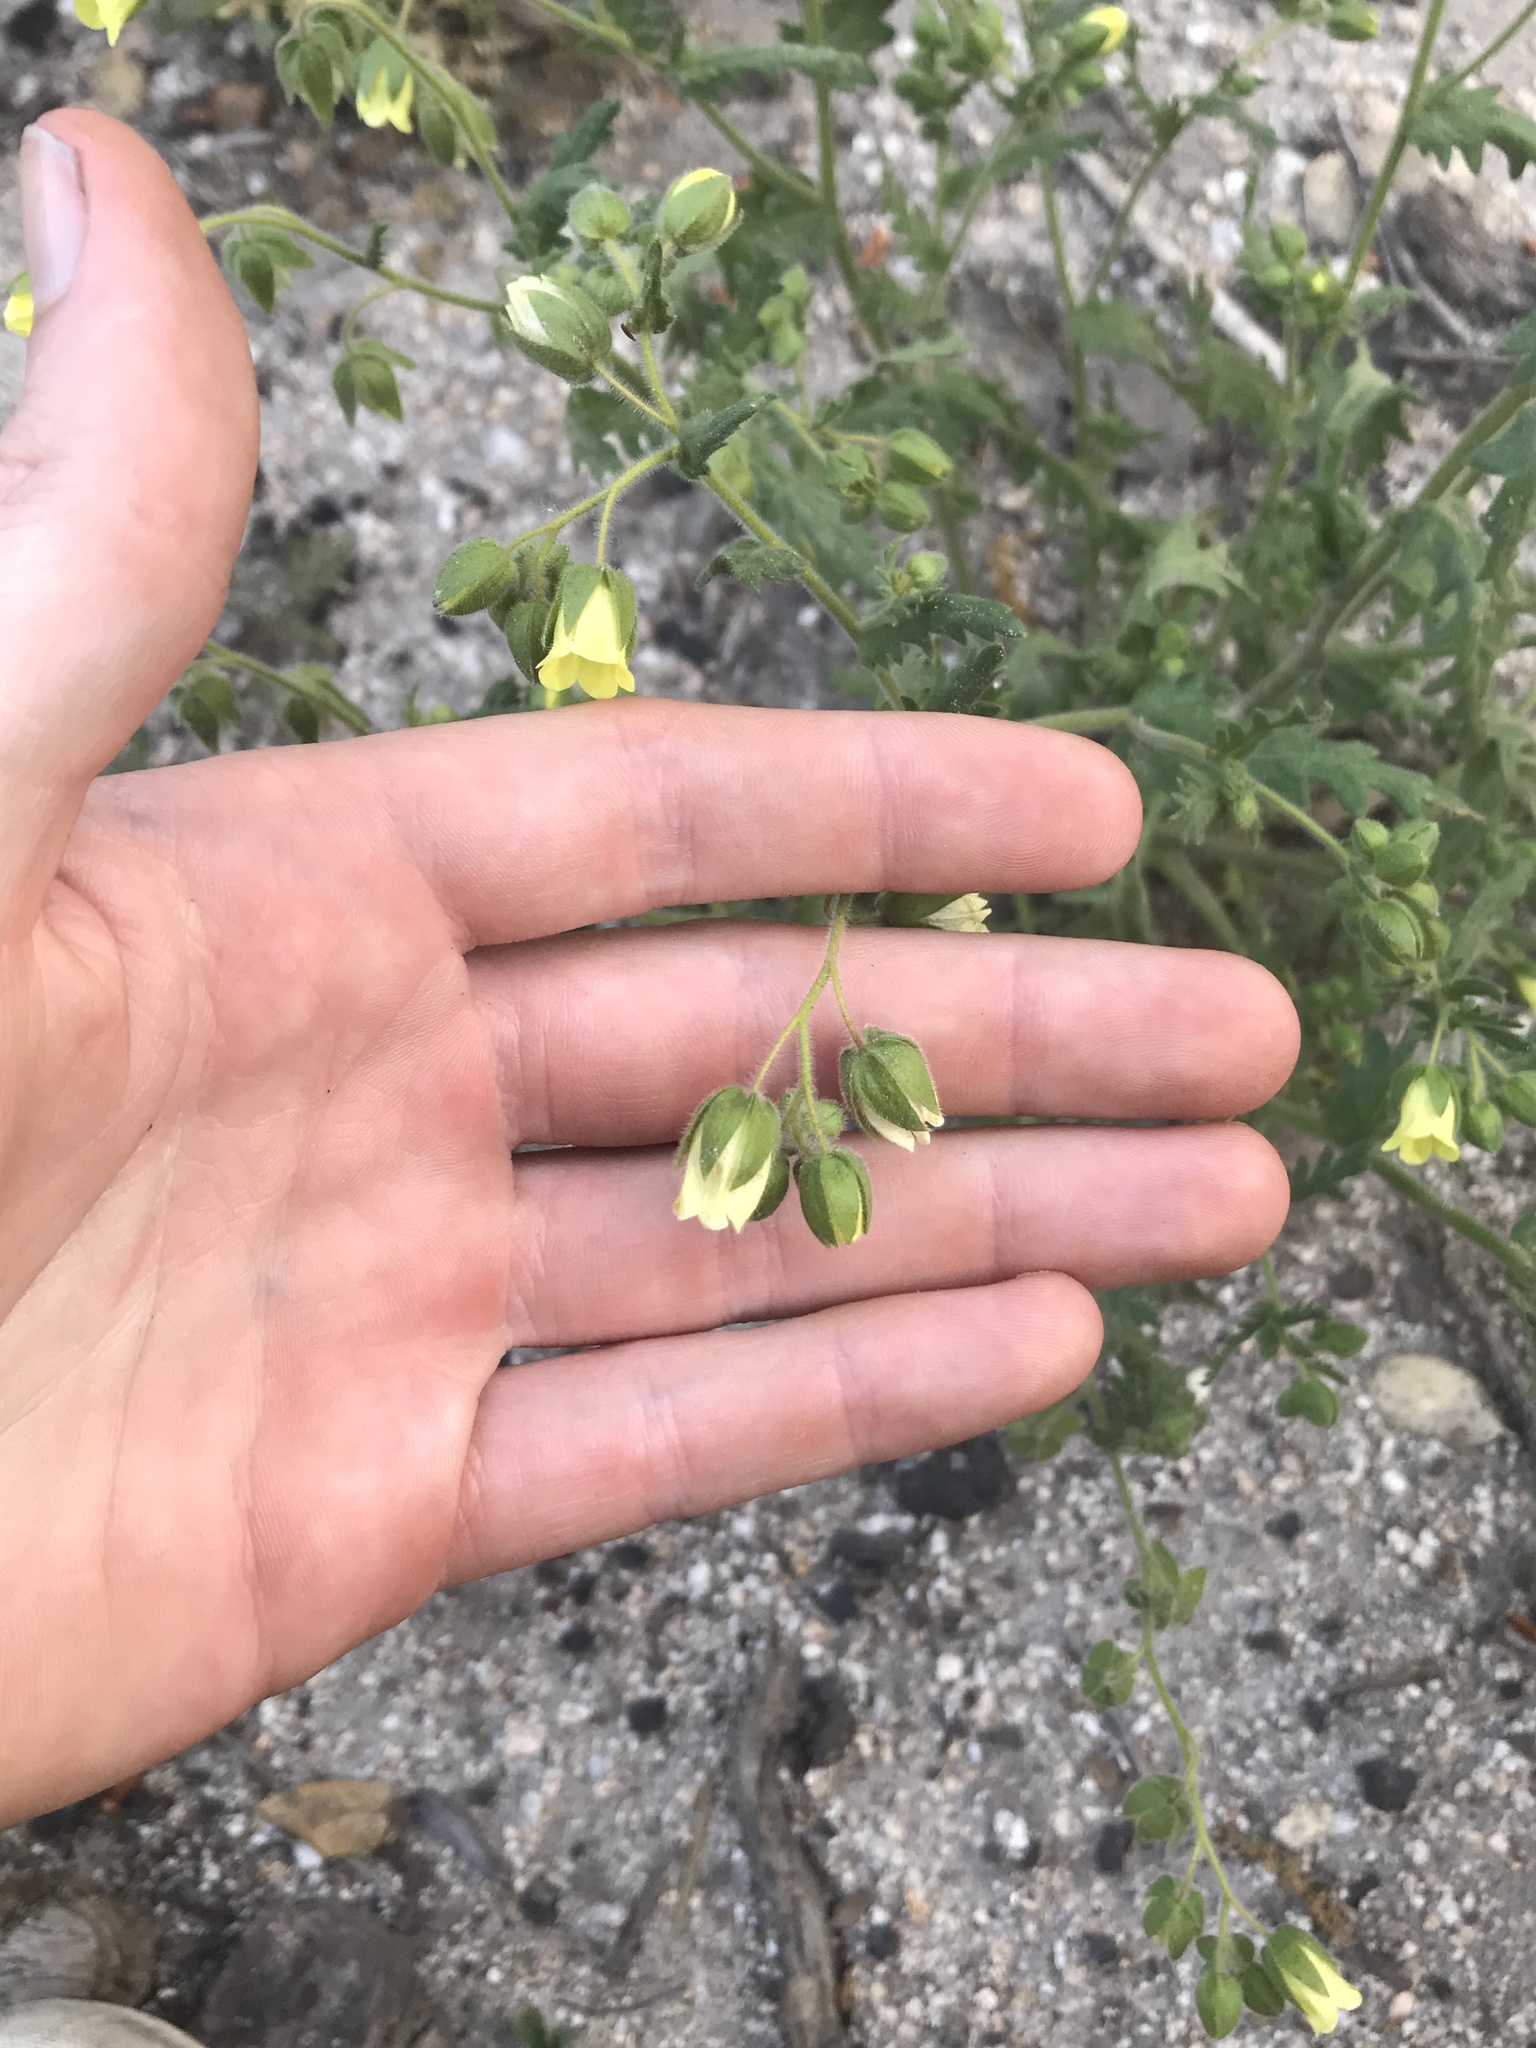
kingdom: Plantae
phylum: Tracheophyta
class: Magnoliopsida
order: Boraginales
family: Hydrophyllaceae
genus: Emmenanthe
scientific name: Emmenanthe penduliflora
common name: Whispering-bells
